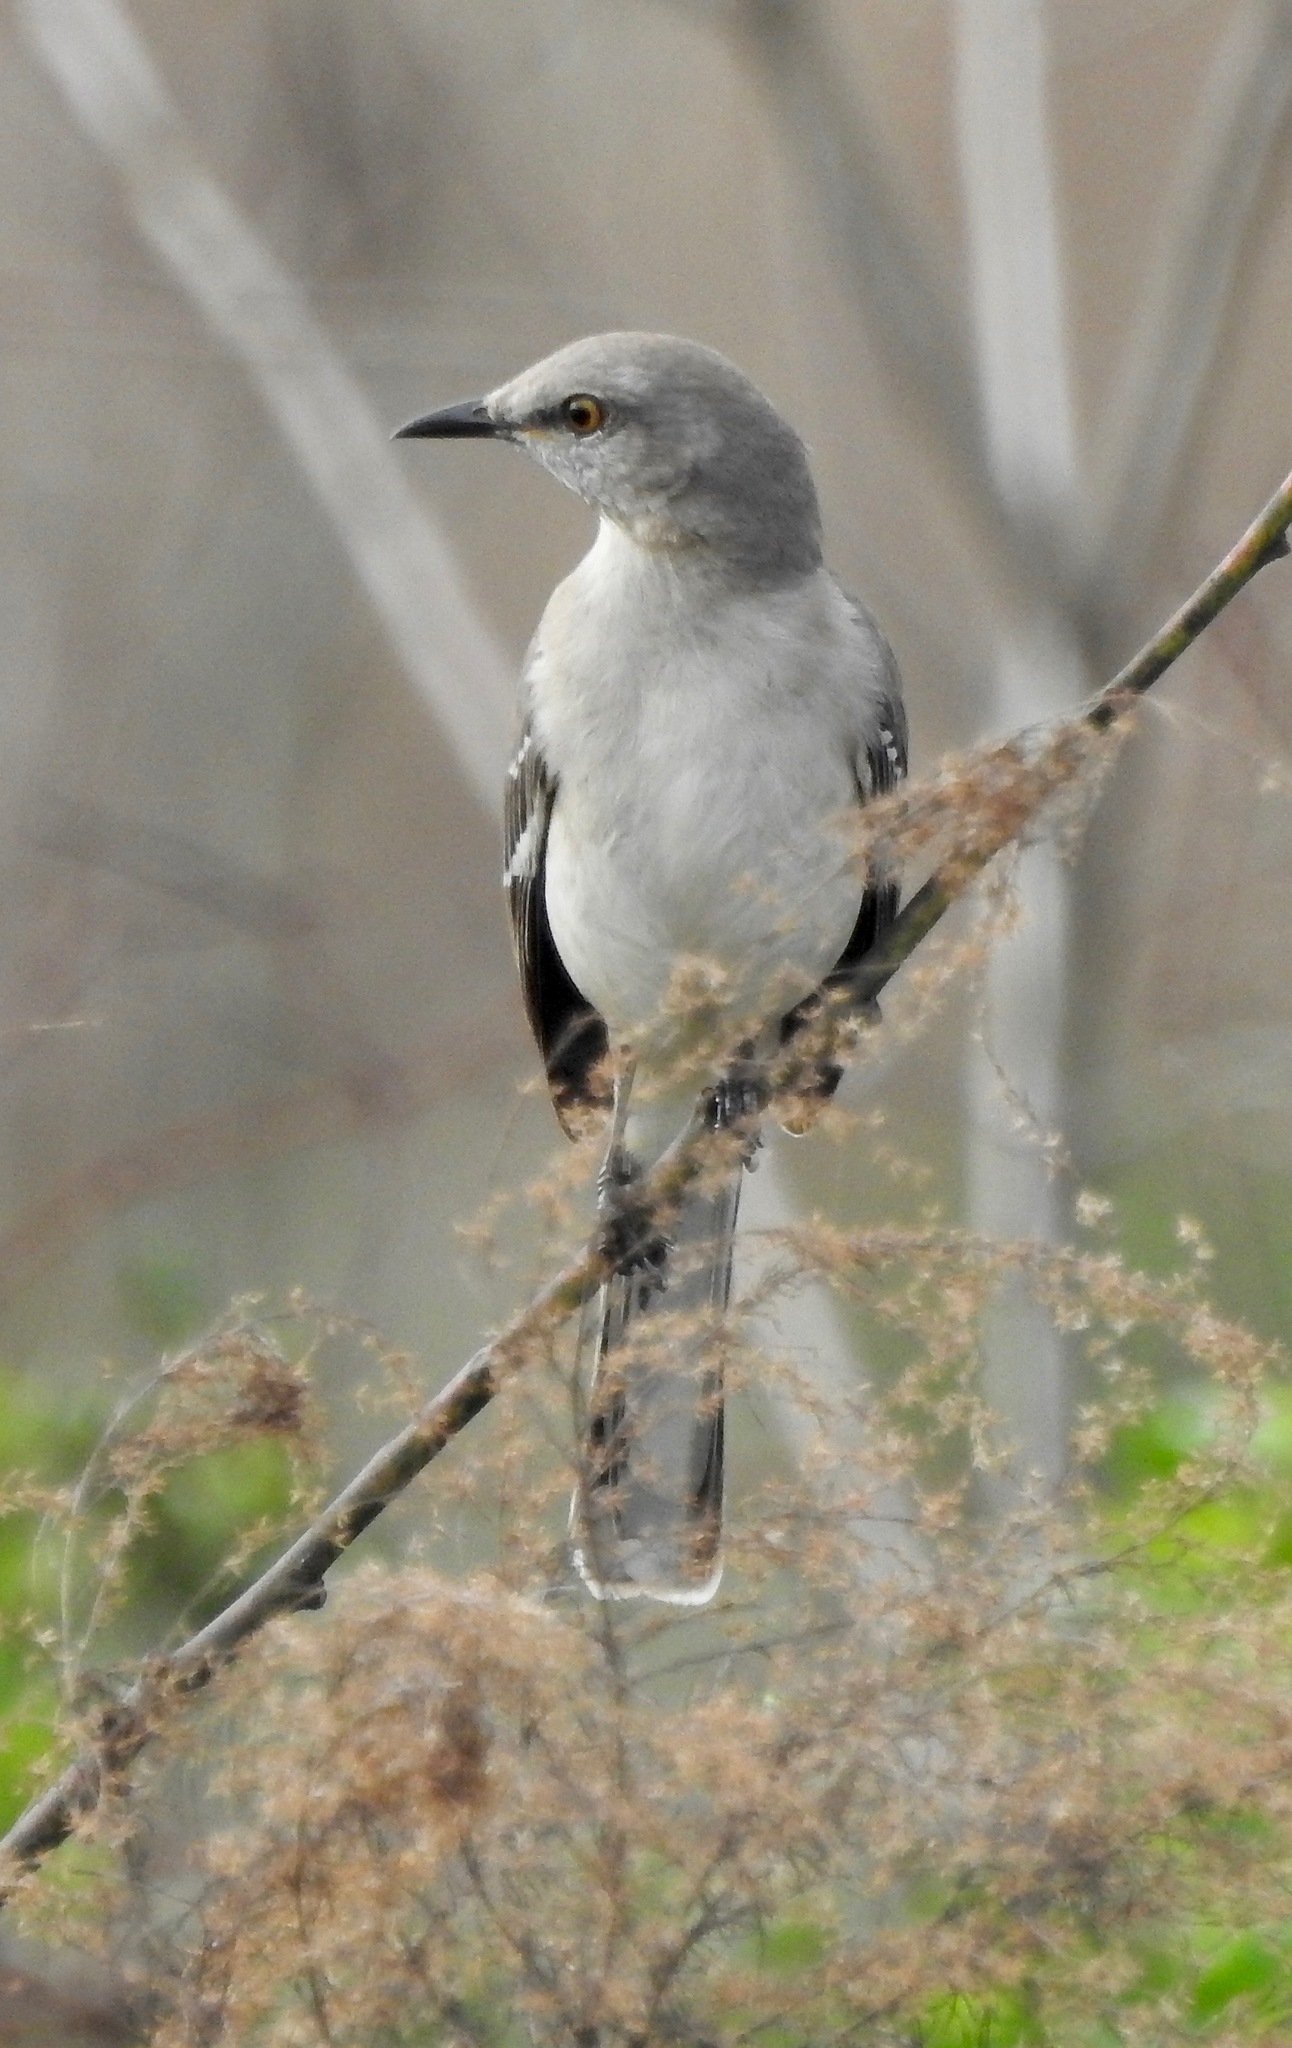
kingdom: Animalia
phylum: Chordata
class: Aves
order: Passeriformes
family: Mimidae
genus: Mimus
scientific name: Mimus polyglottos
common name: Northern mockingbird
